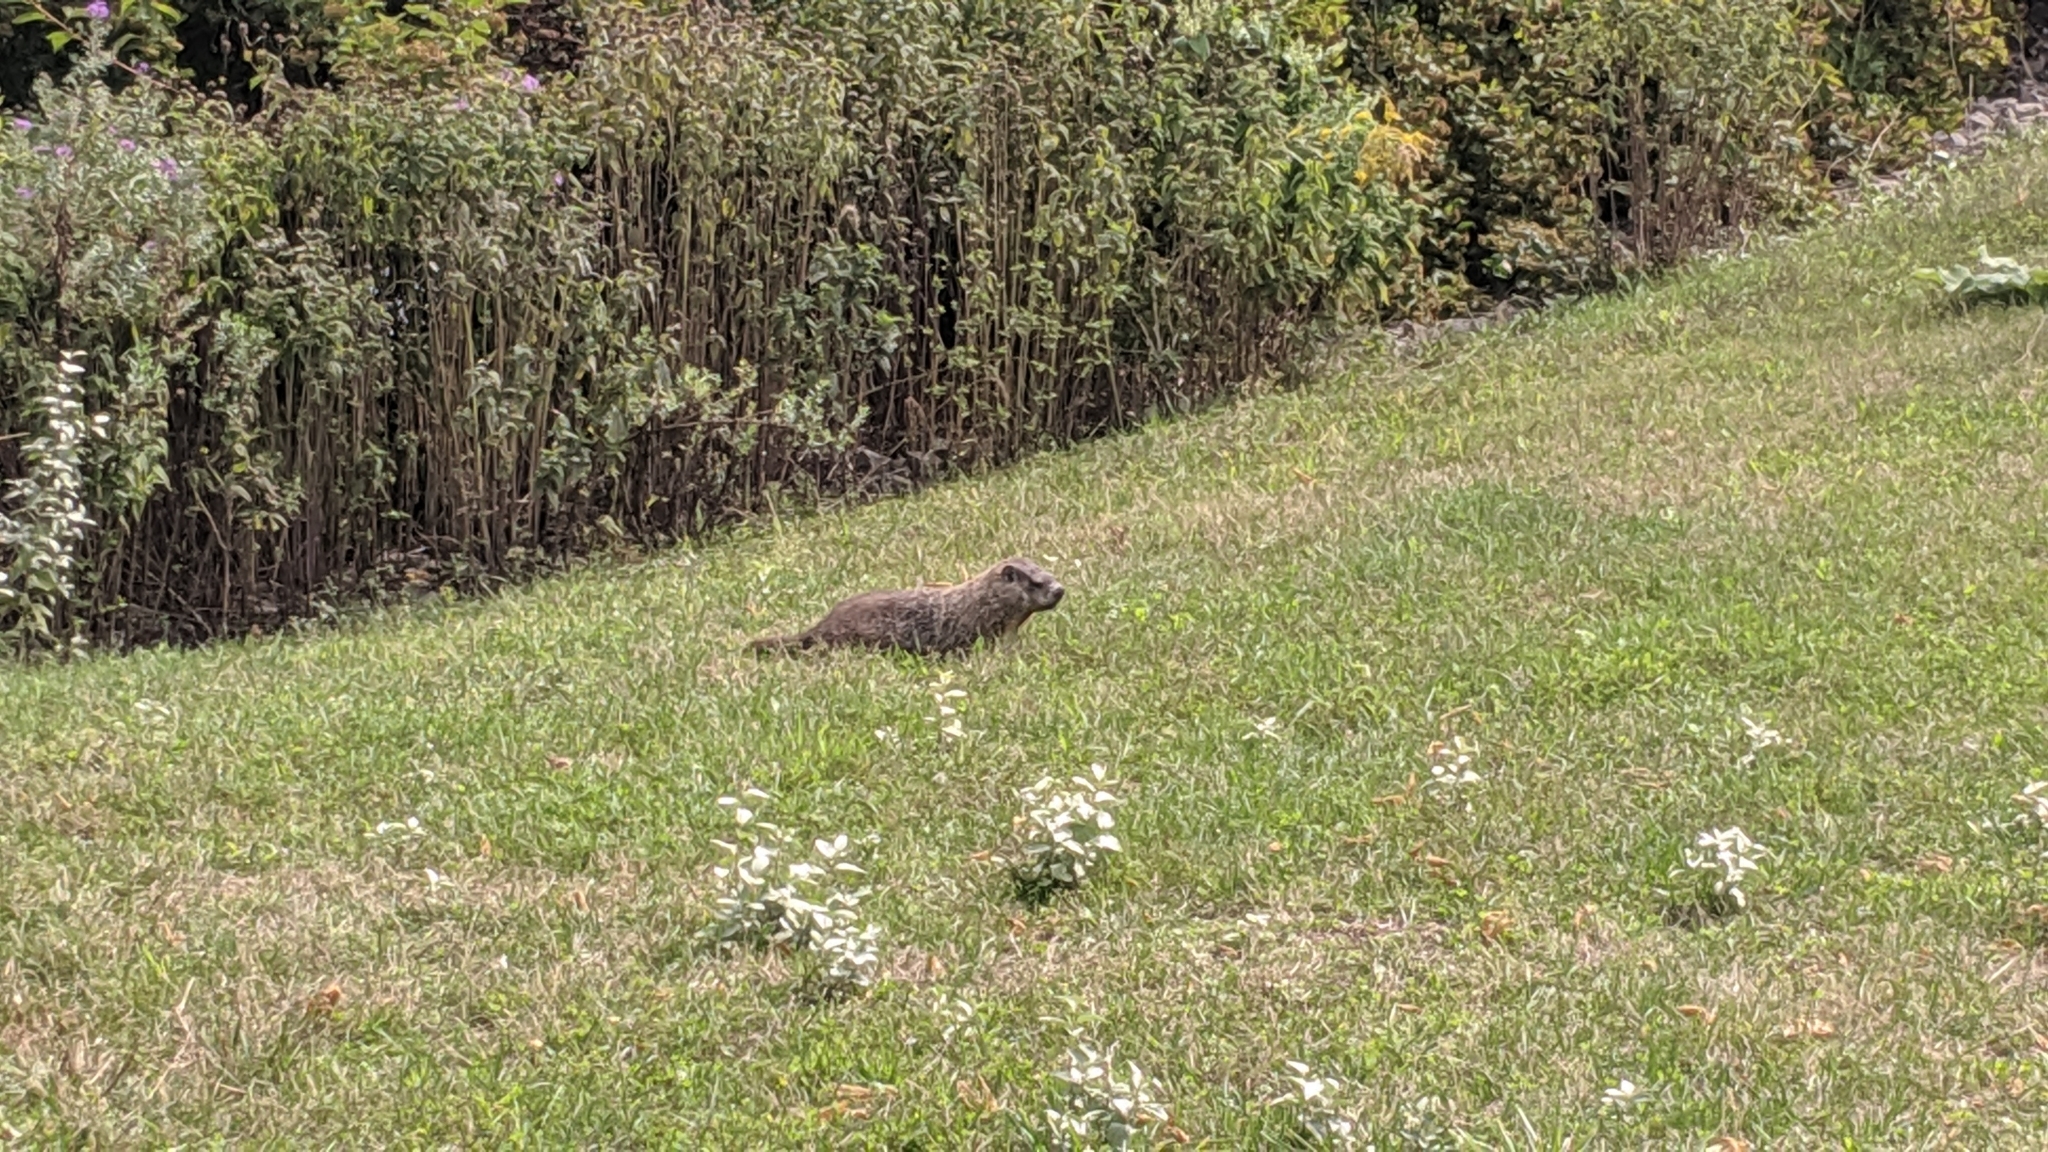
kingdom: Animalia
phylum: Chordata
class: Mammalia
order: Rodentia
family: Sciuridae
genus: Marmota
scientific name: Marmota monax
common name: Groundhog
